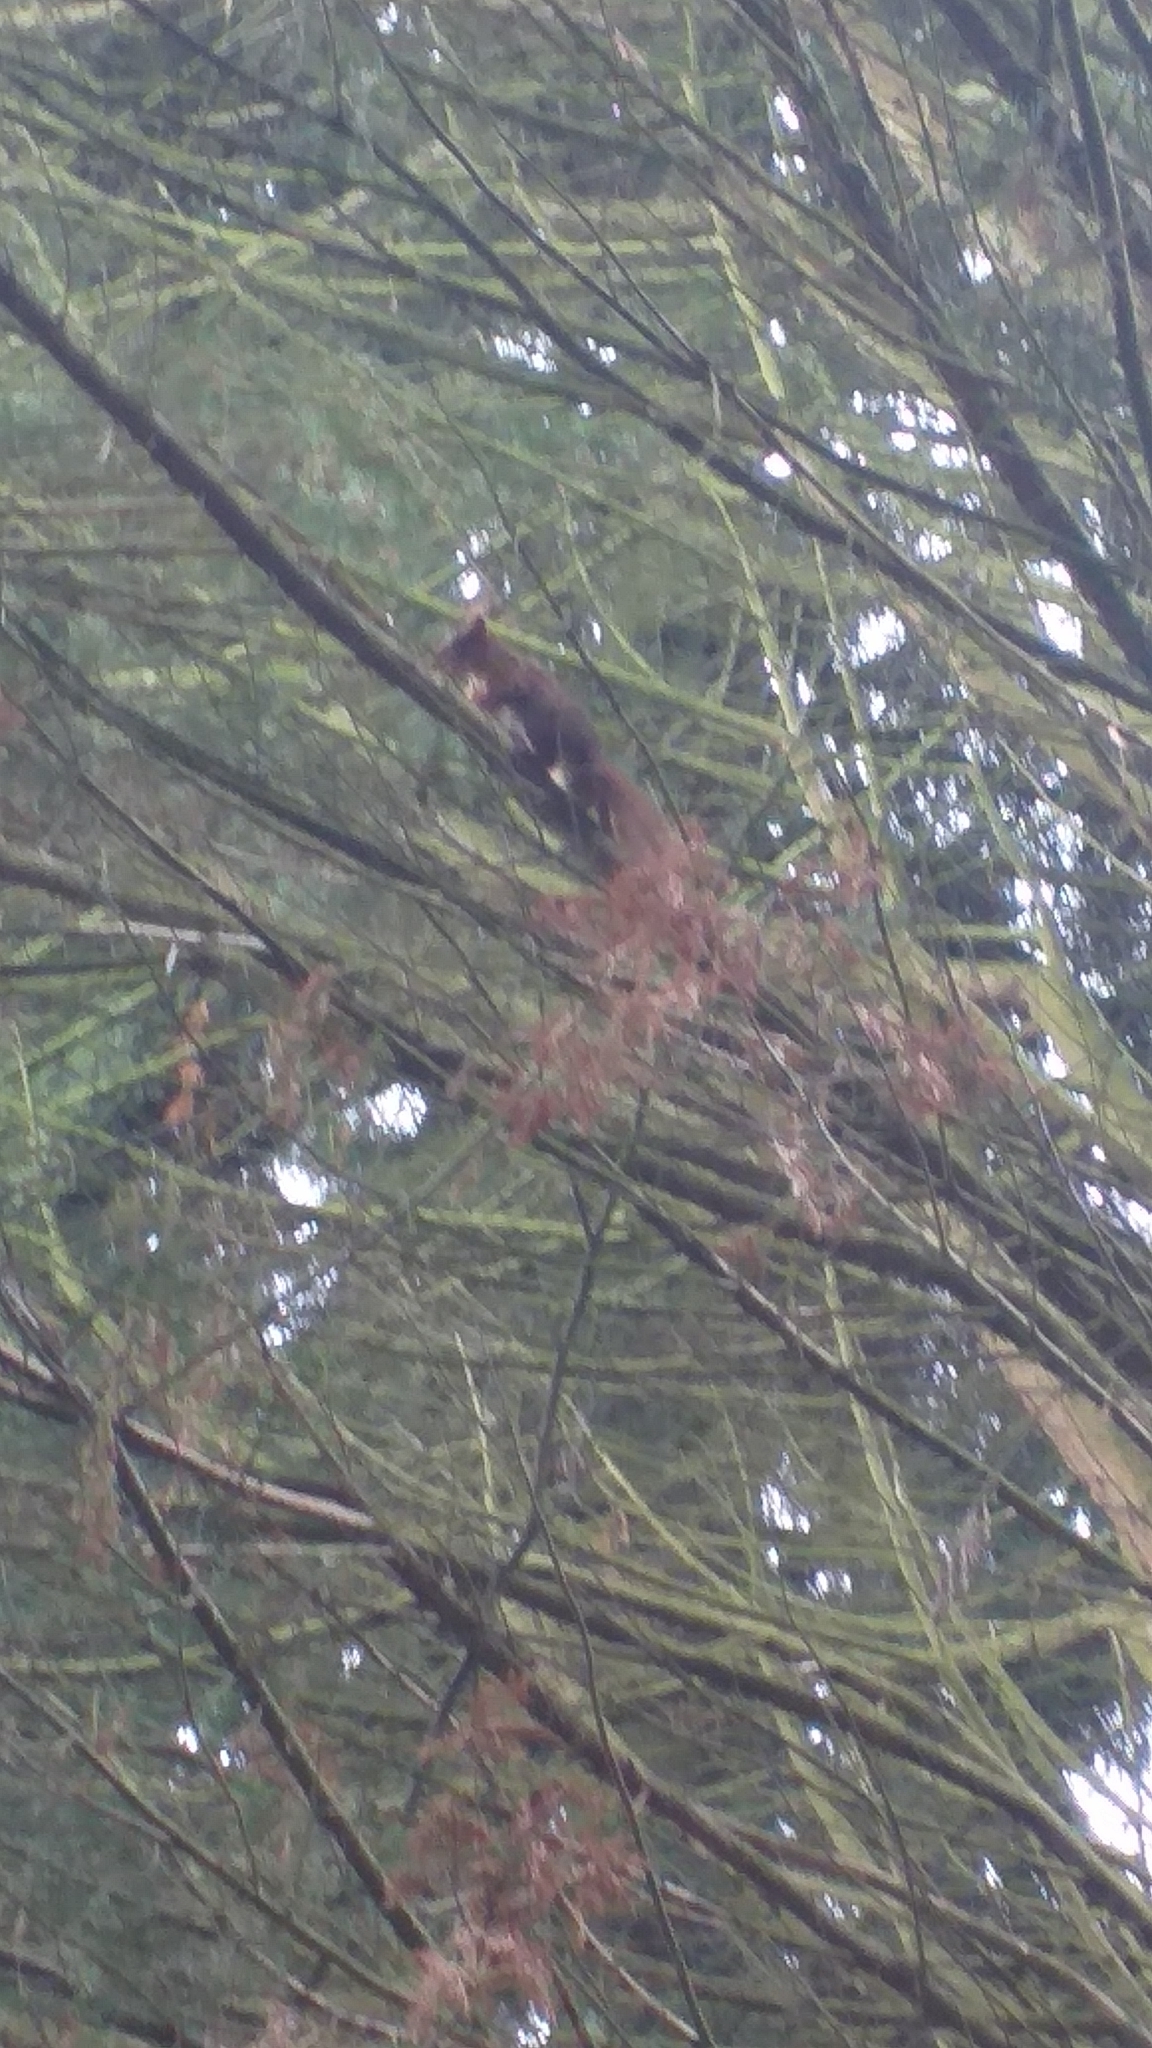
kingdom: Animalia
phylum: Chordata
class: Mammalia
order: Rodentia
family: Sciuridae
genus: Sciurus
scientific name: Sciurus vulgaris
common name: Eurasian red squirrel
